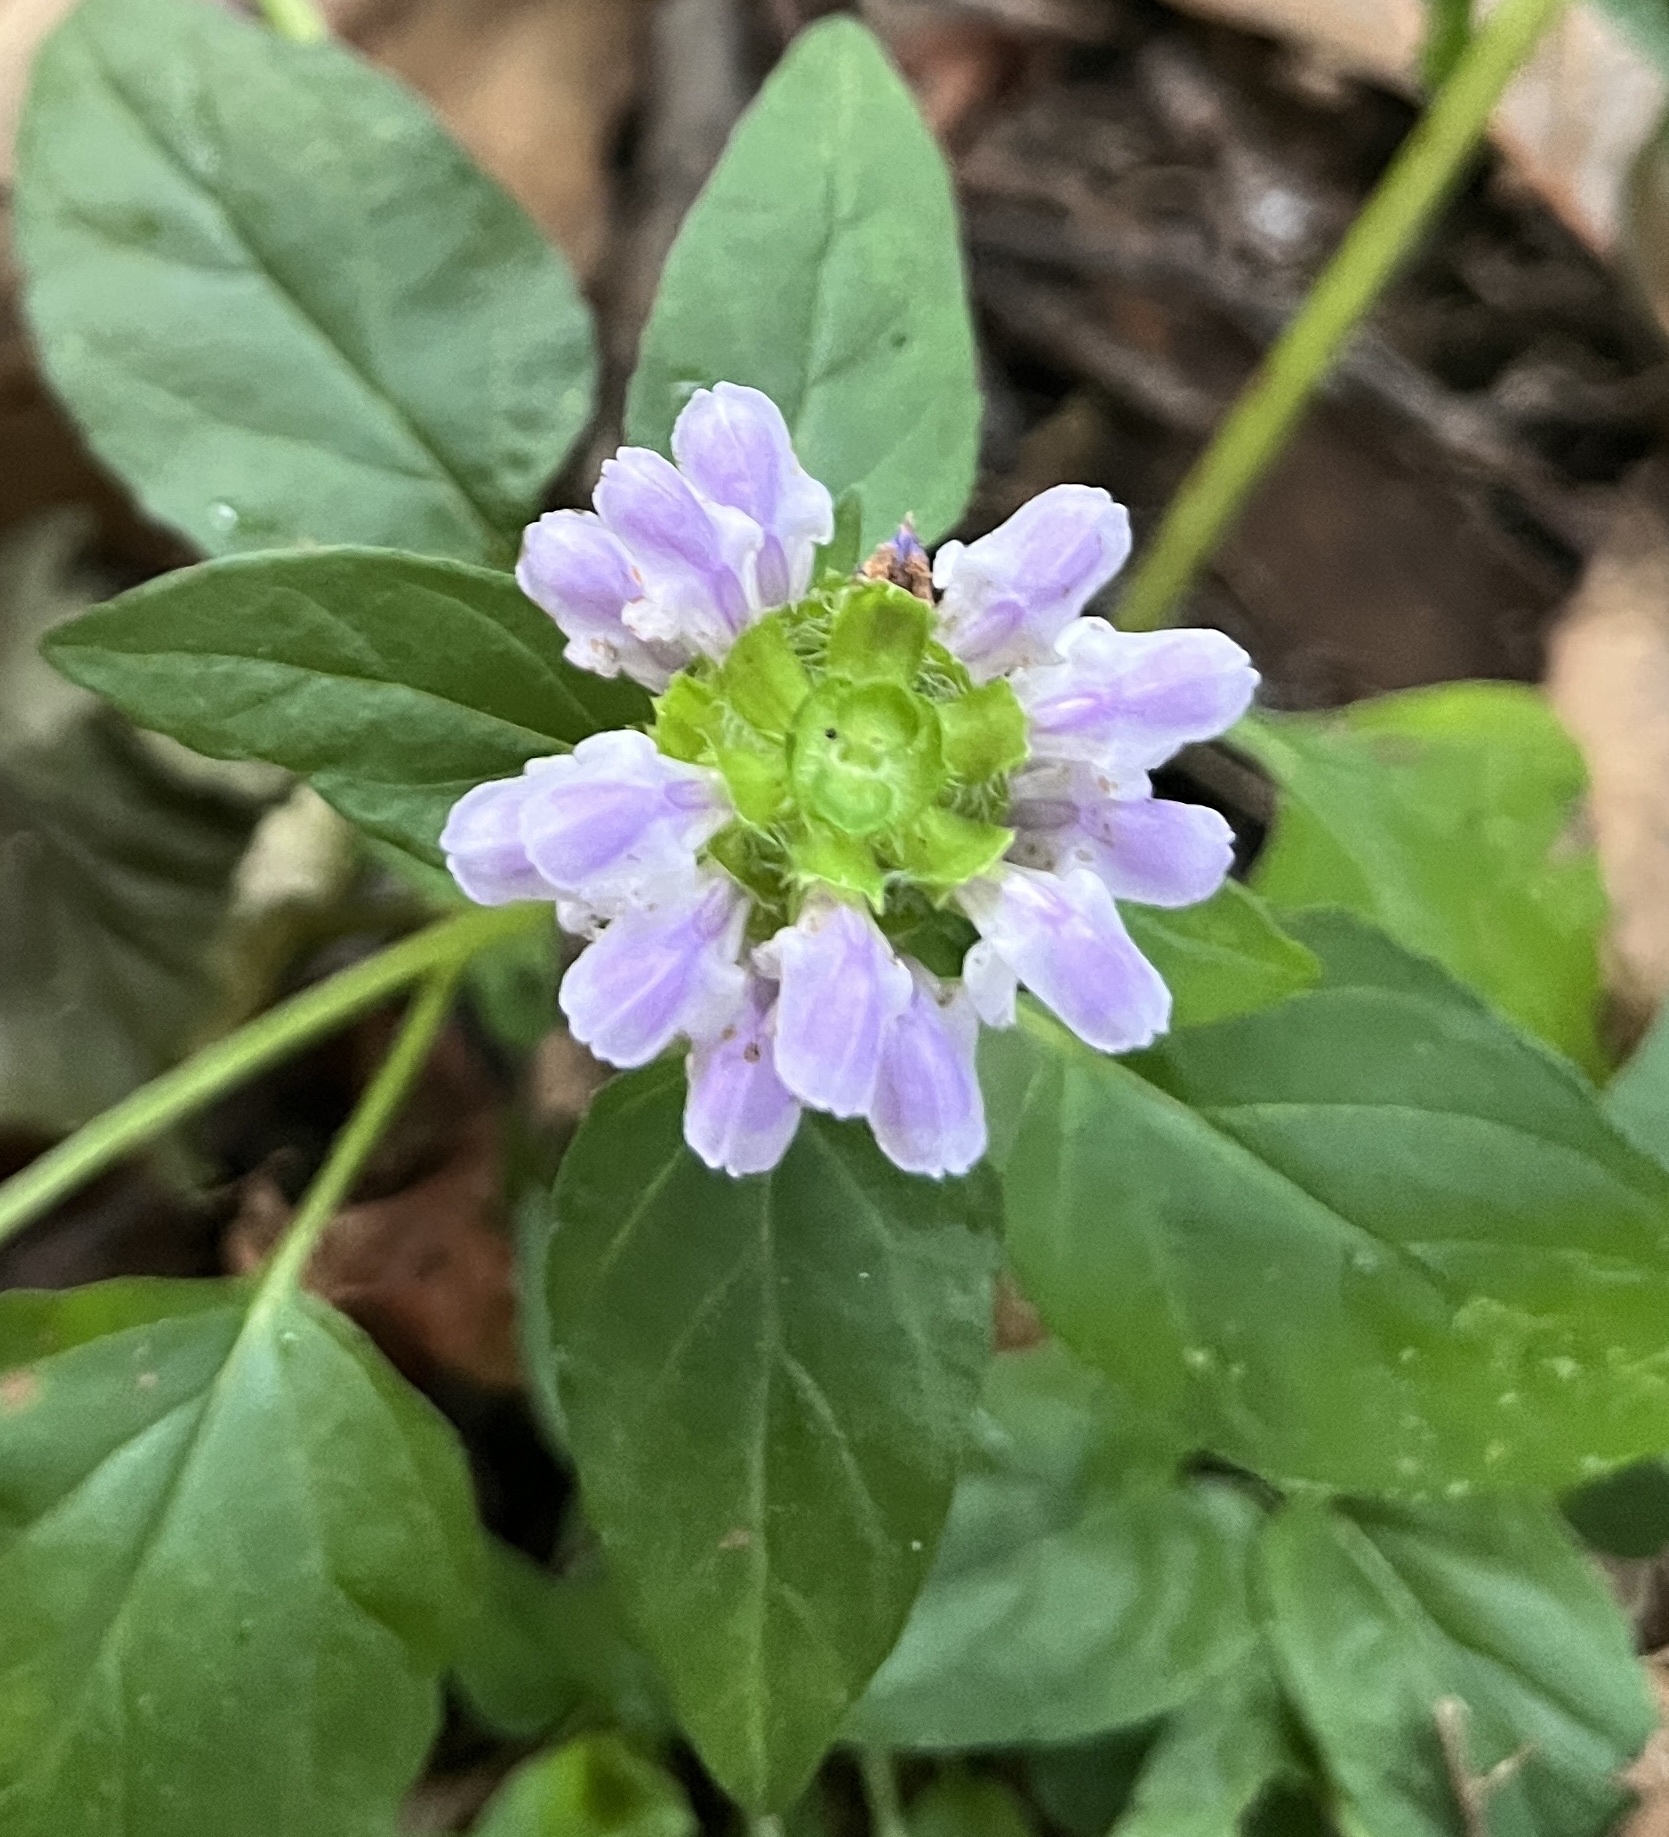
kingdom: Plantae
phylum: Tracheophyta
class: Magnoliopsida
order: Lamiales
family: Lamiaceae
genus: Prunella
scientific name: Prunella vulgaris
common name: Heal-all
